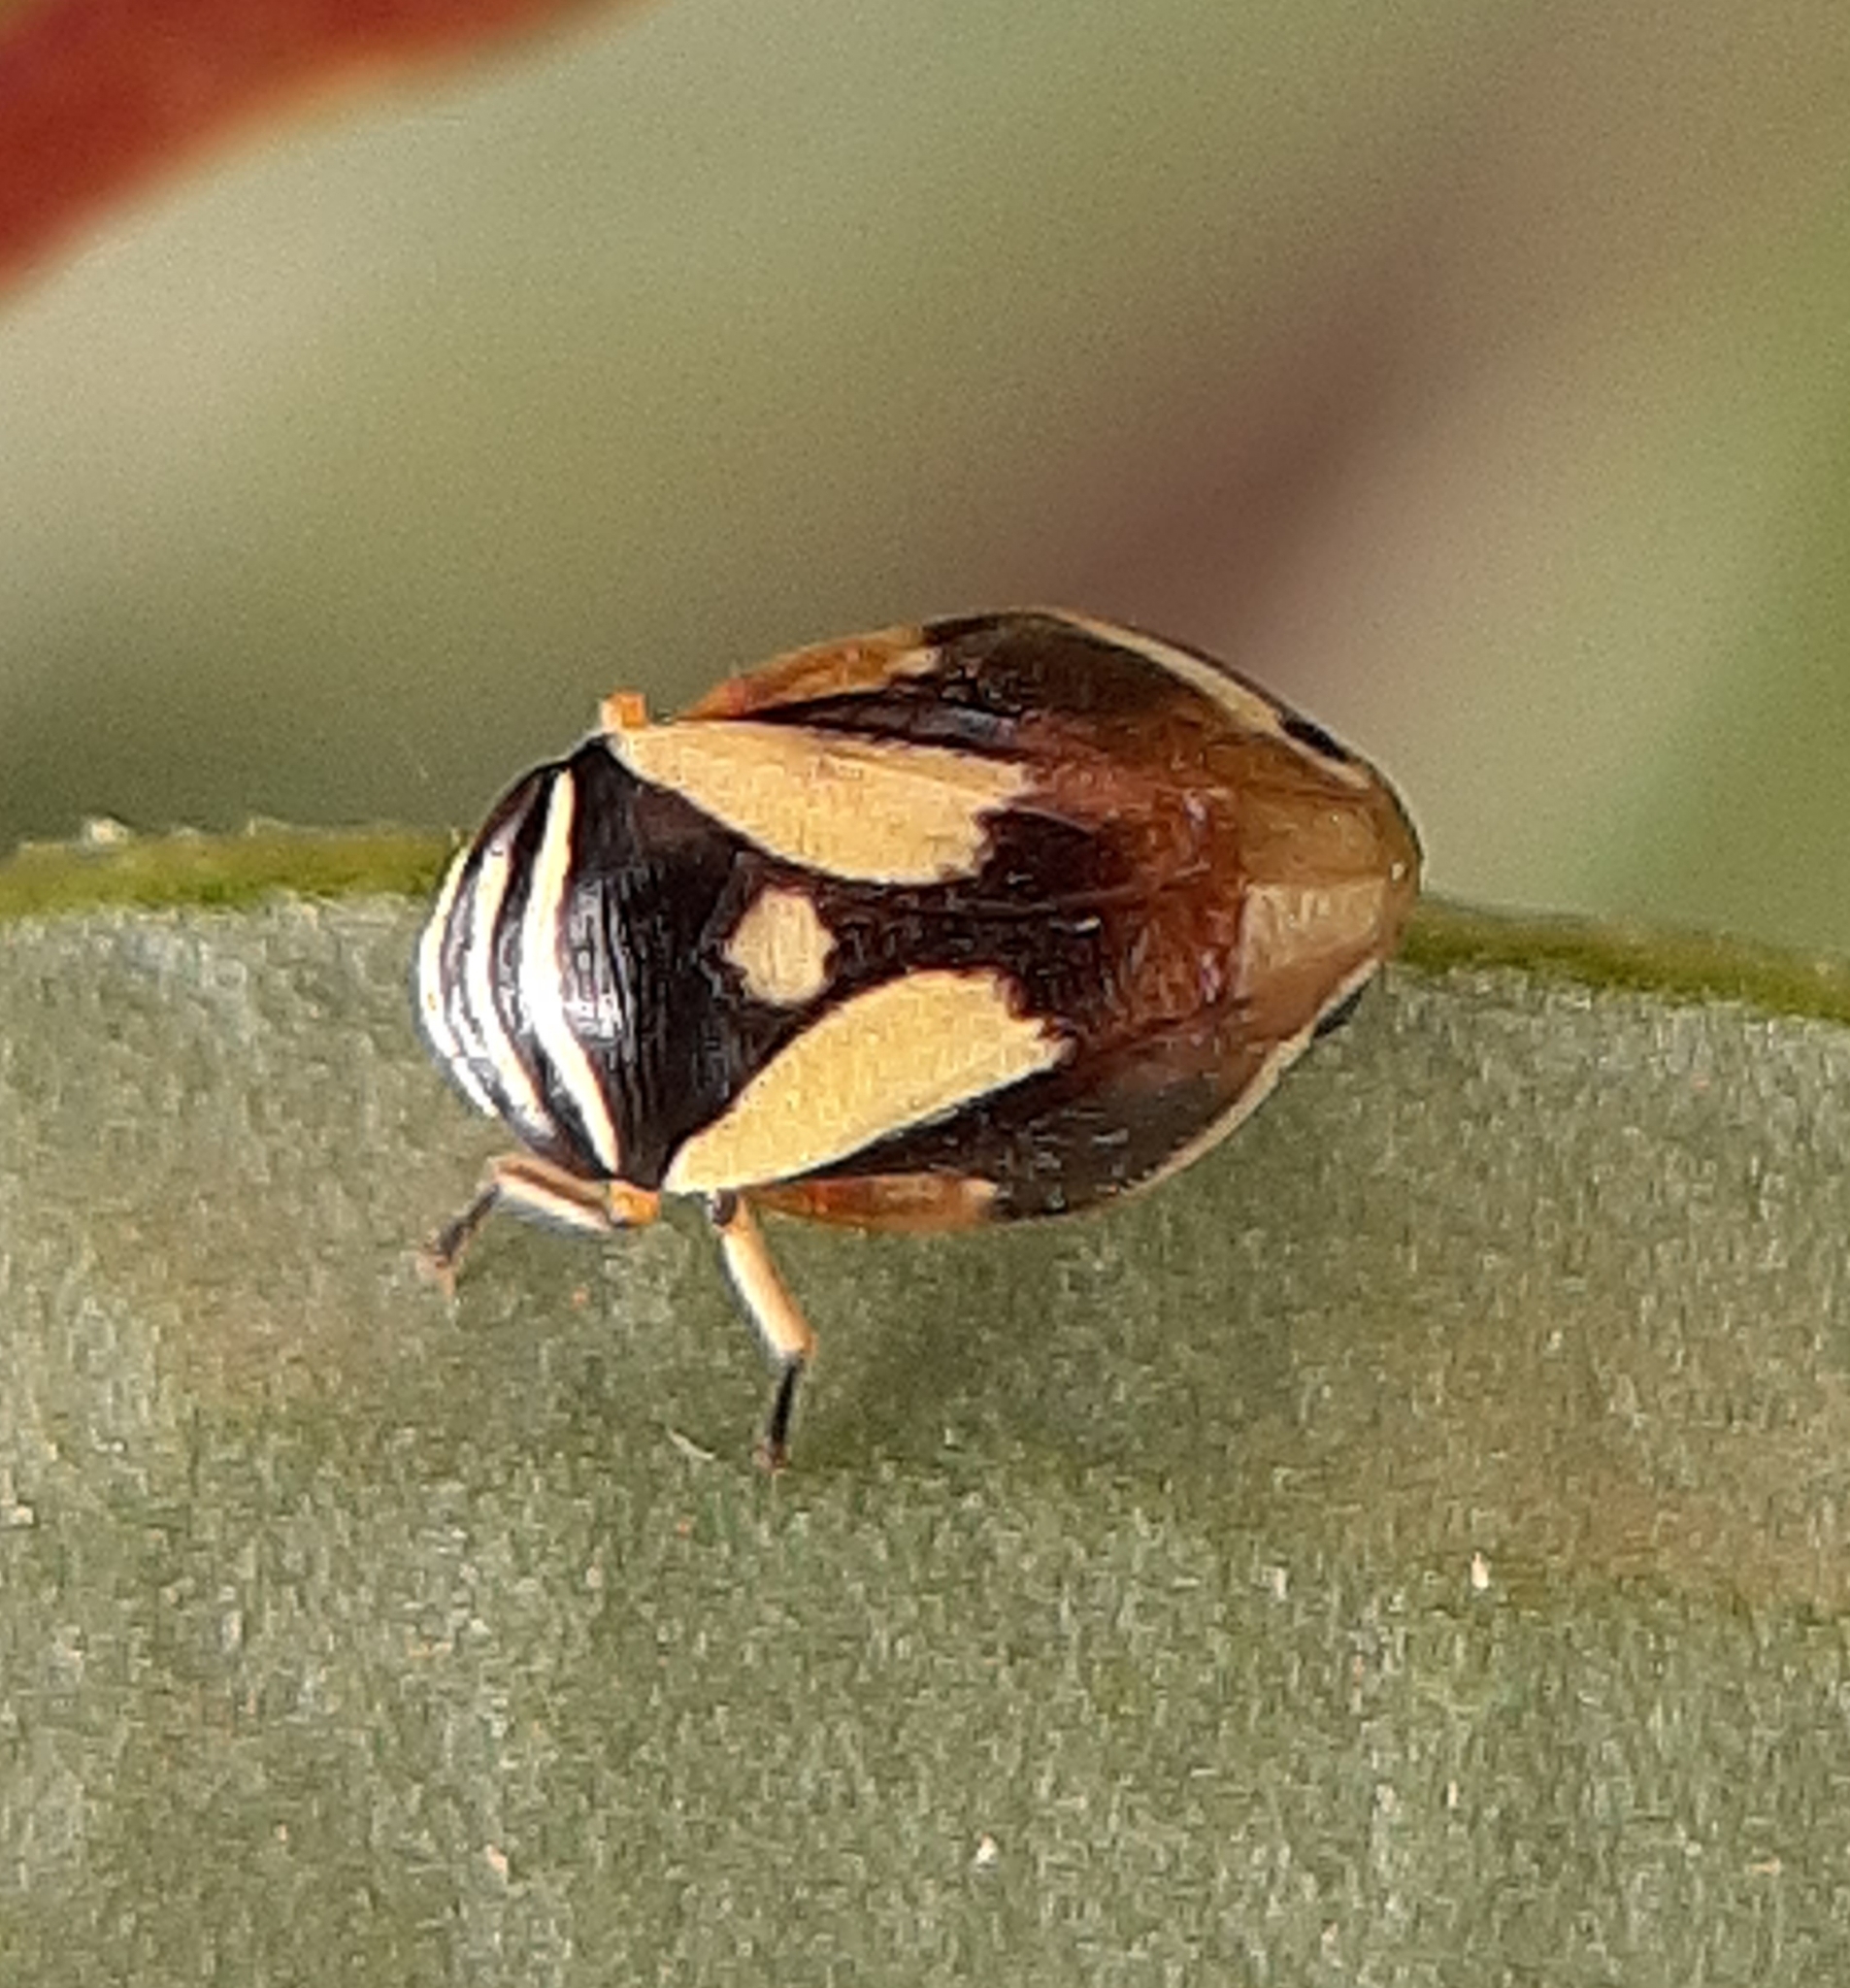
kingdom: Animalia
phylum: Arthropoda
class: Insecta
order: Hemiptera
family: Clastopteridae
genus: Clastoptera
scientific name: Clastoptera proteus
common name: Dogwood spittlebug
